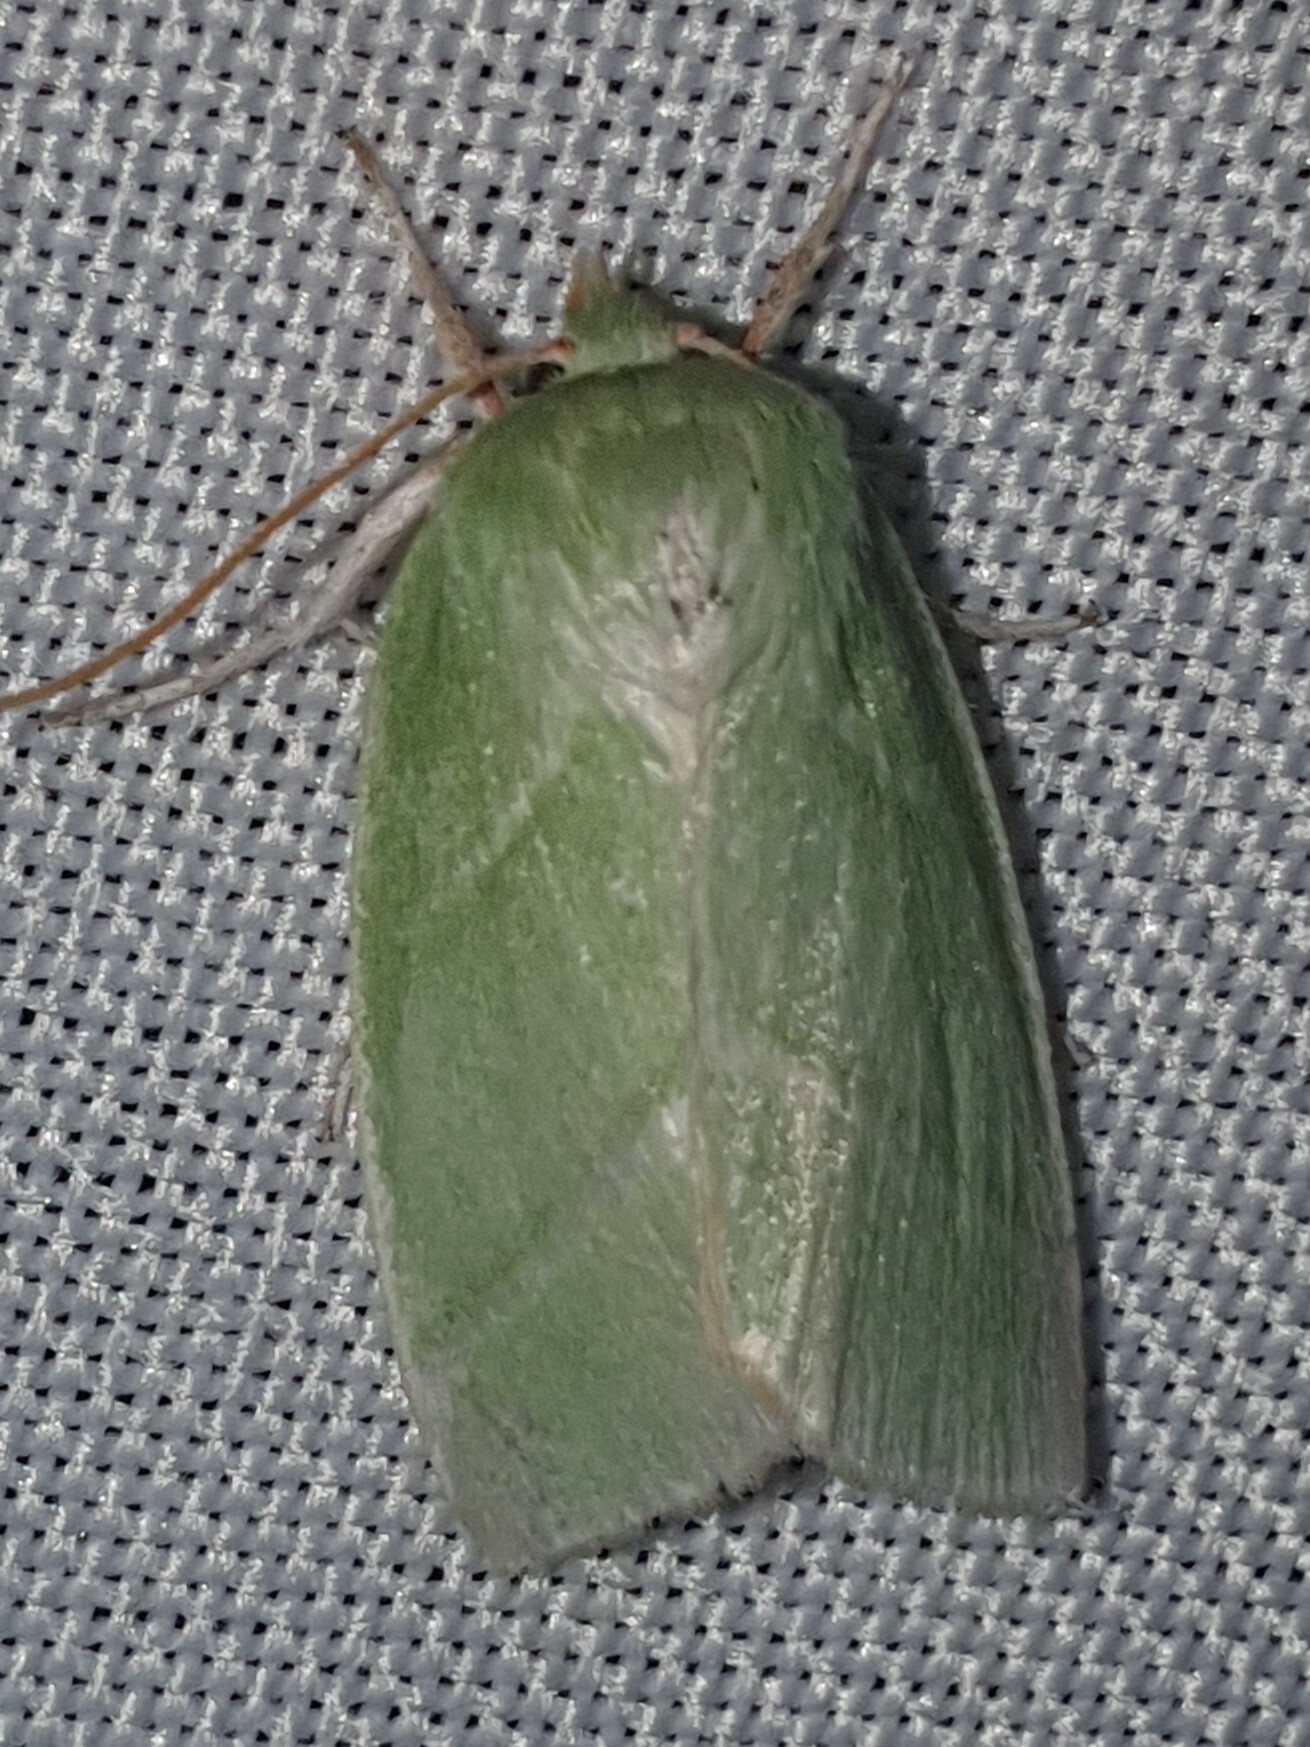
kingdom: Animalia
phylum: Arthropoda
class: Insecta
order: Lepidoptera
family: Nolidae
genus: Pseudoips
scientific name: Pseudoips prasinana
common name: Green silver-lines
